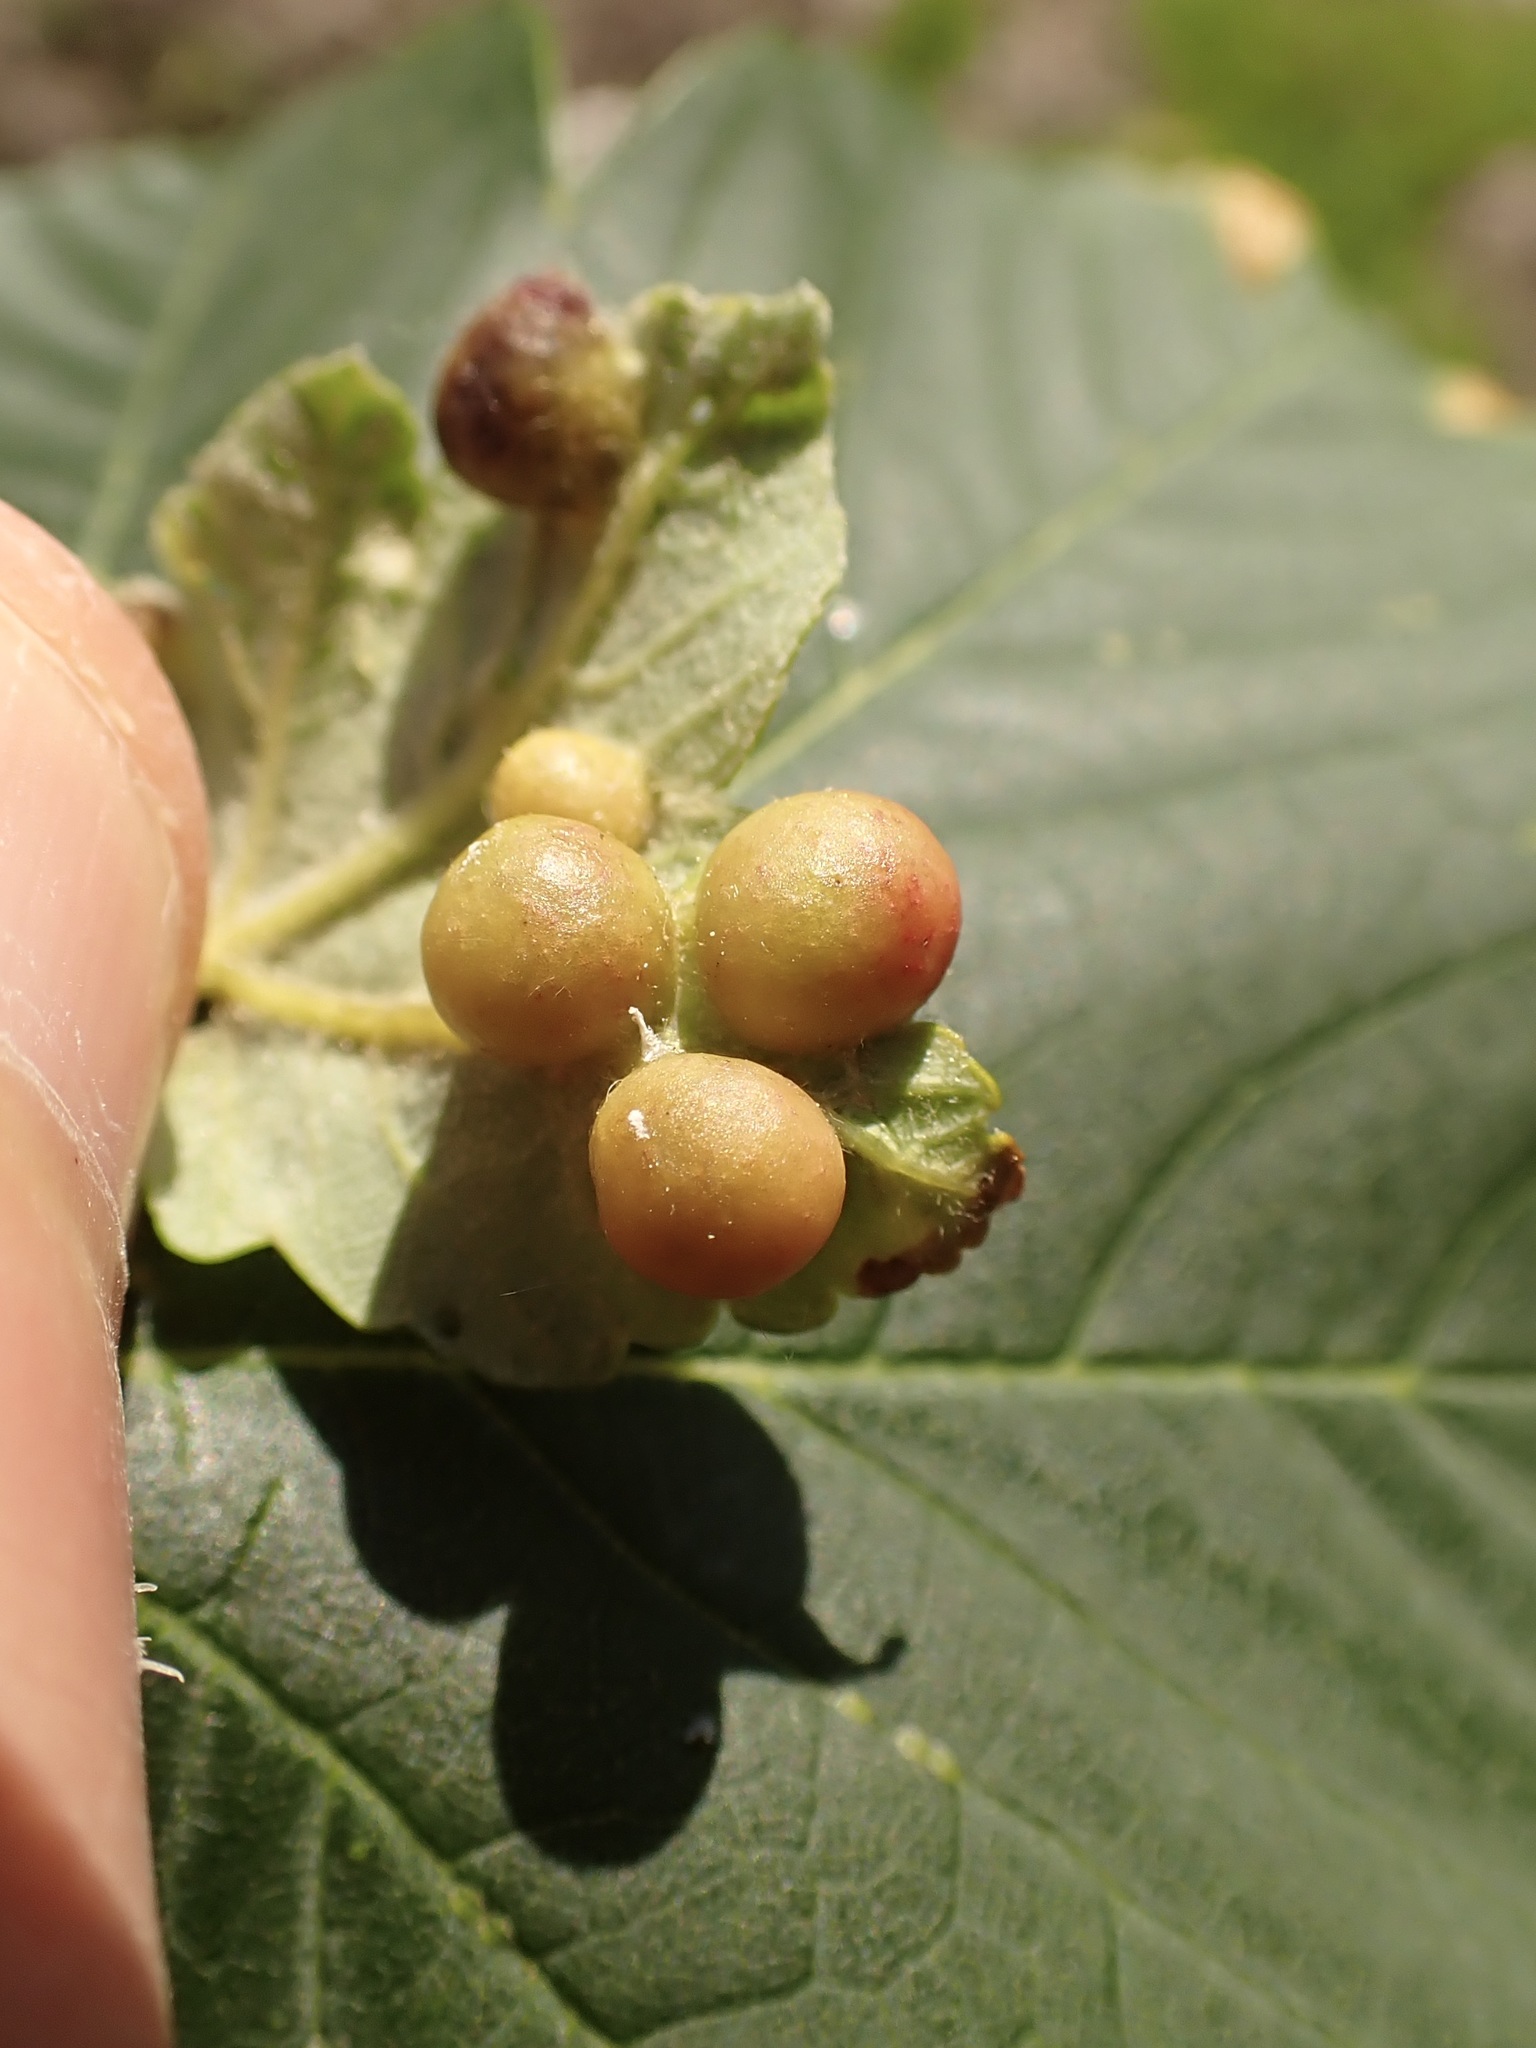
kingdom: Animalia
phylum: Arthropoda
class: Insecta
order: Hymenoptera
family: Cynipidae
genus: Pediaspis
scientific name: Pediaspis aceris
